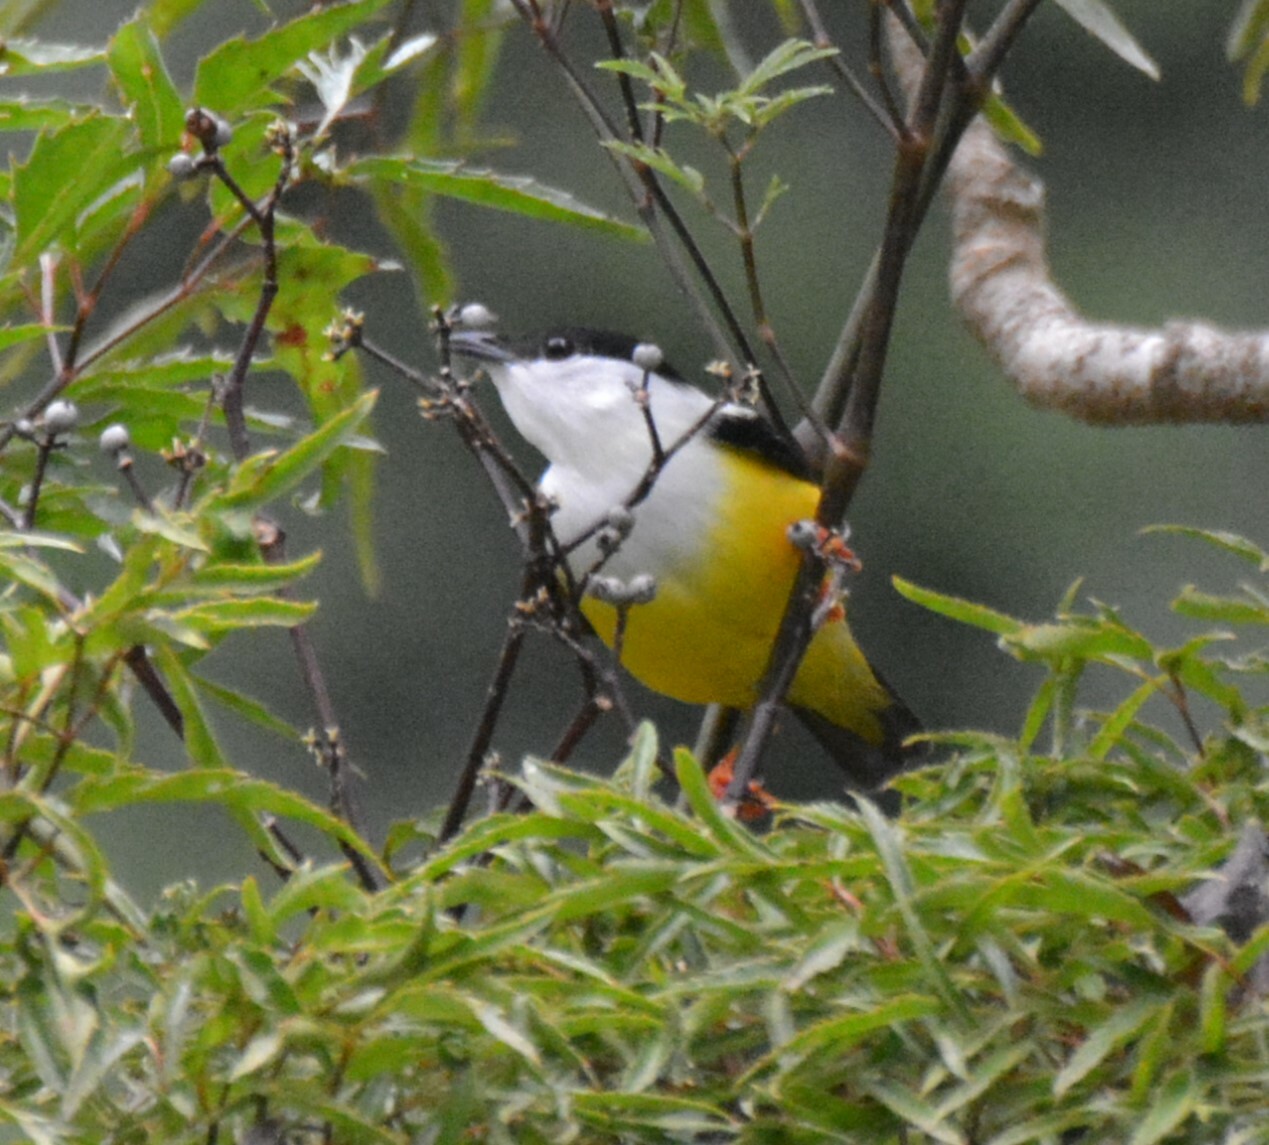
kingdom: Animalia
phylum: Chordata
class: Aves
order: Passeriformes
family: Pipridae
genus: Manacus
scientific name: Manacus candei
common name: White-collared manakin
